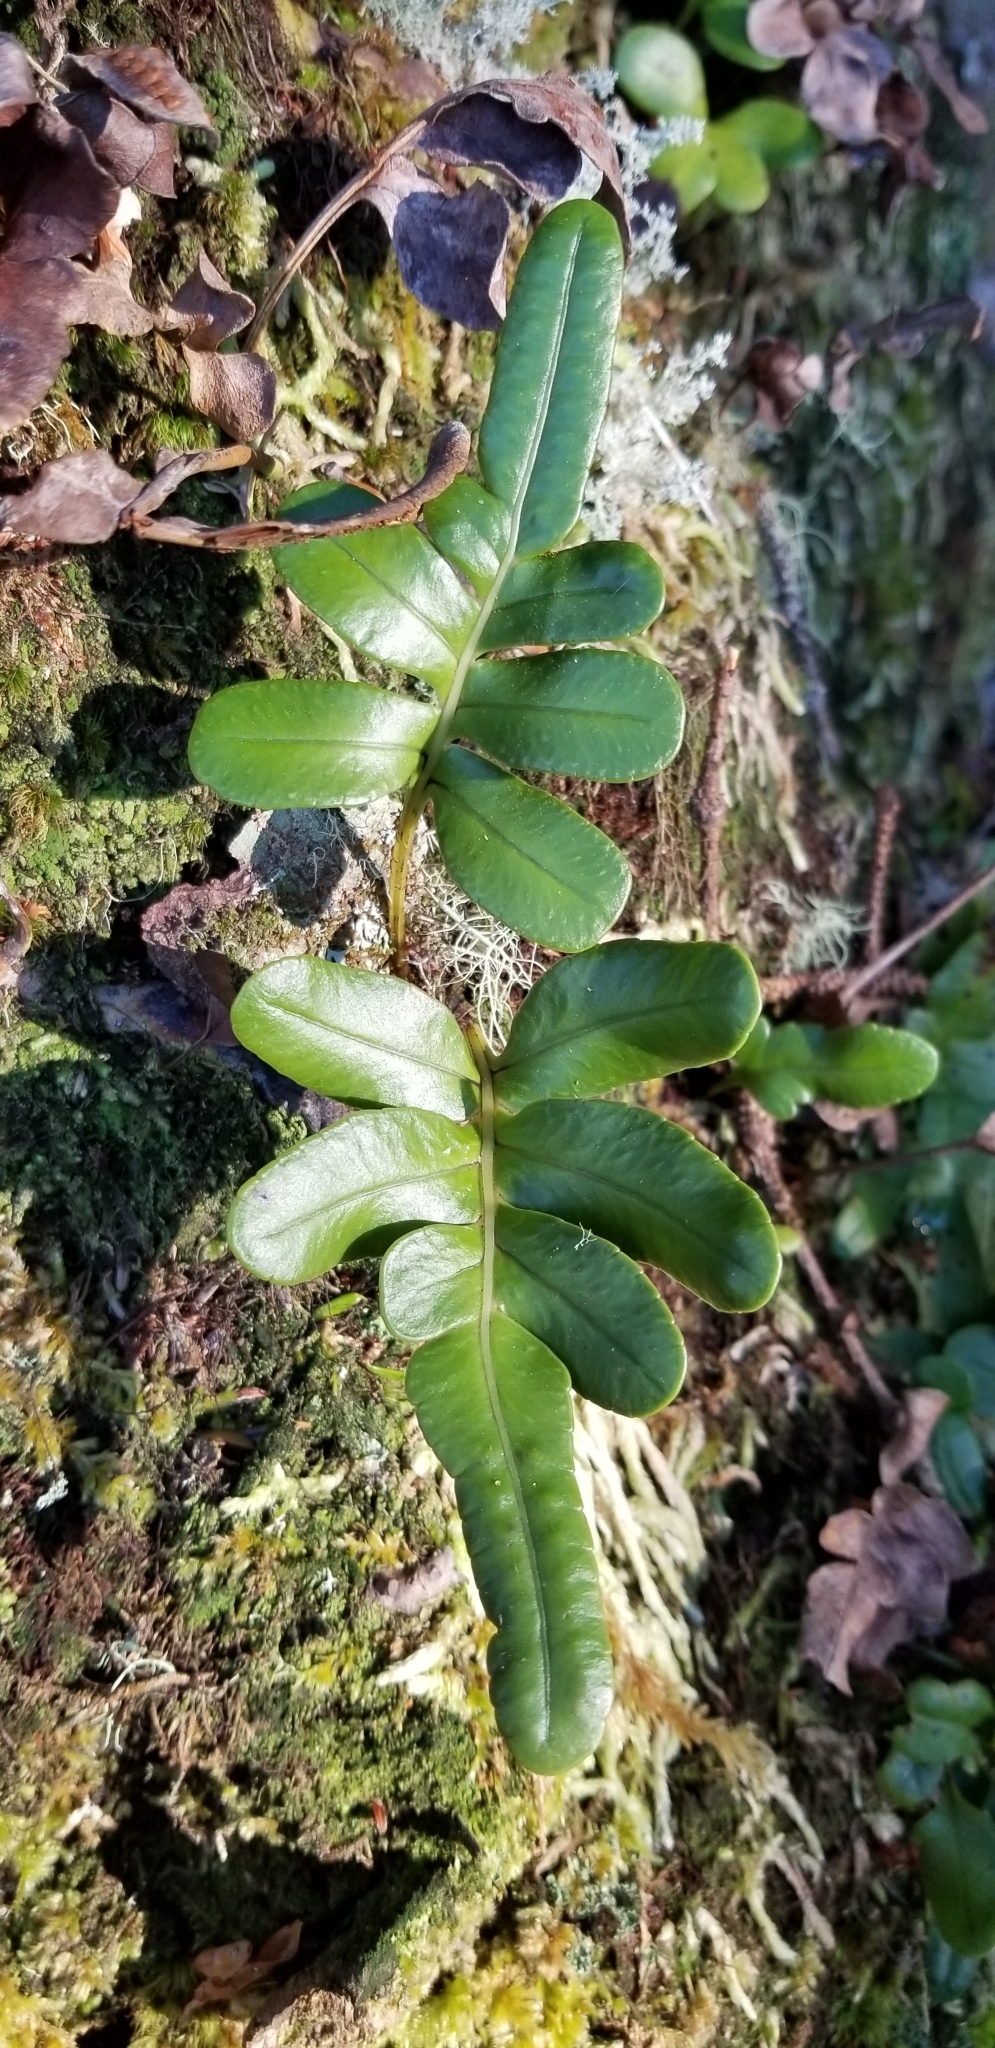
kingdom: Plantae
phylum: Tracheophyta
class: Polypodiopsida
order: Polypodiales
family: Polypodiaceae
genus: Polypodium
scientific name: Polypodium scouleri
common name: Scouler's polypody
